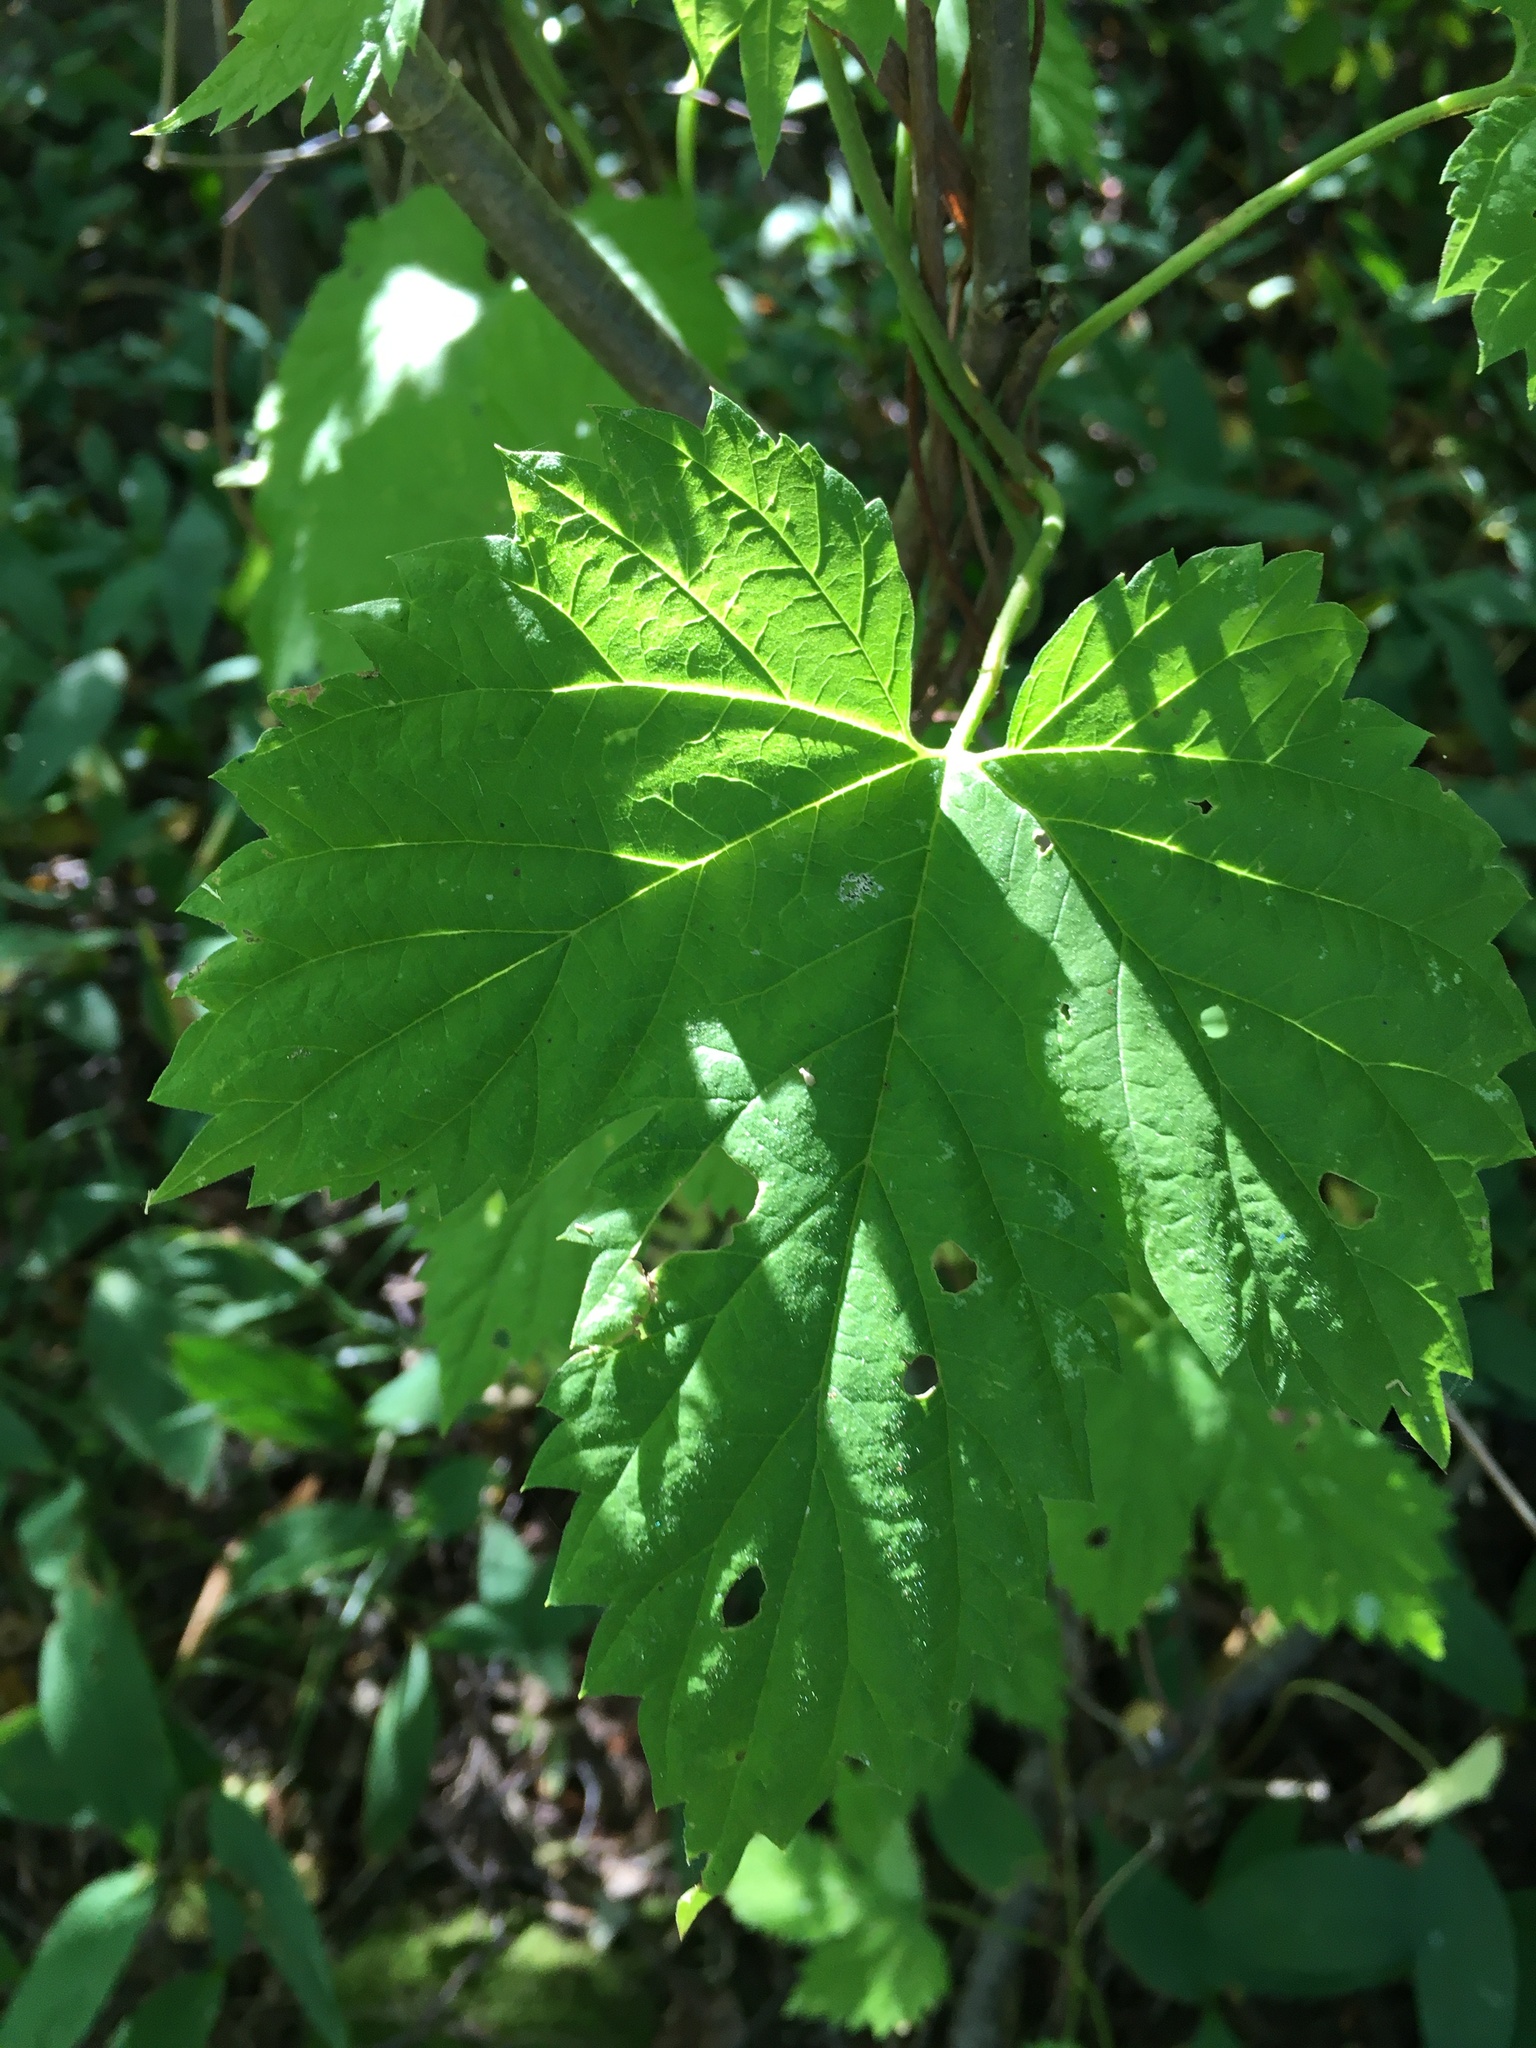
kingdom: Plantae
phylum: Tracheophyta
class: Magnoliopsida
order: Rosales
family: Cannabaceae
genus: Humulus
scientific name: Humulus lupulus
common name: Hop
